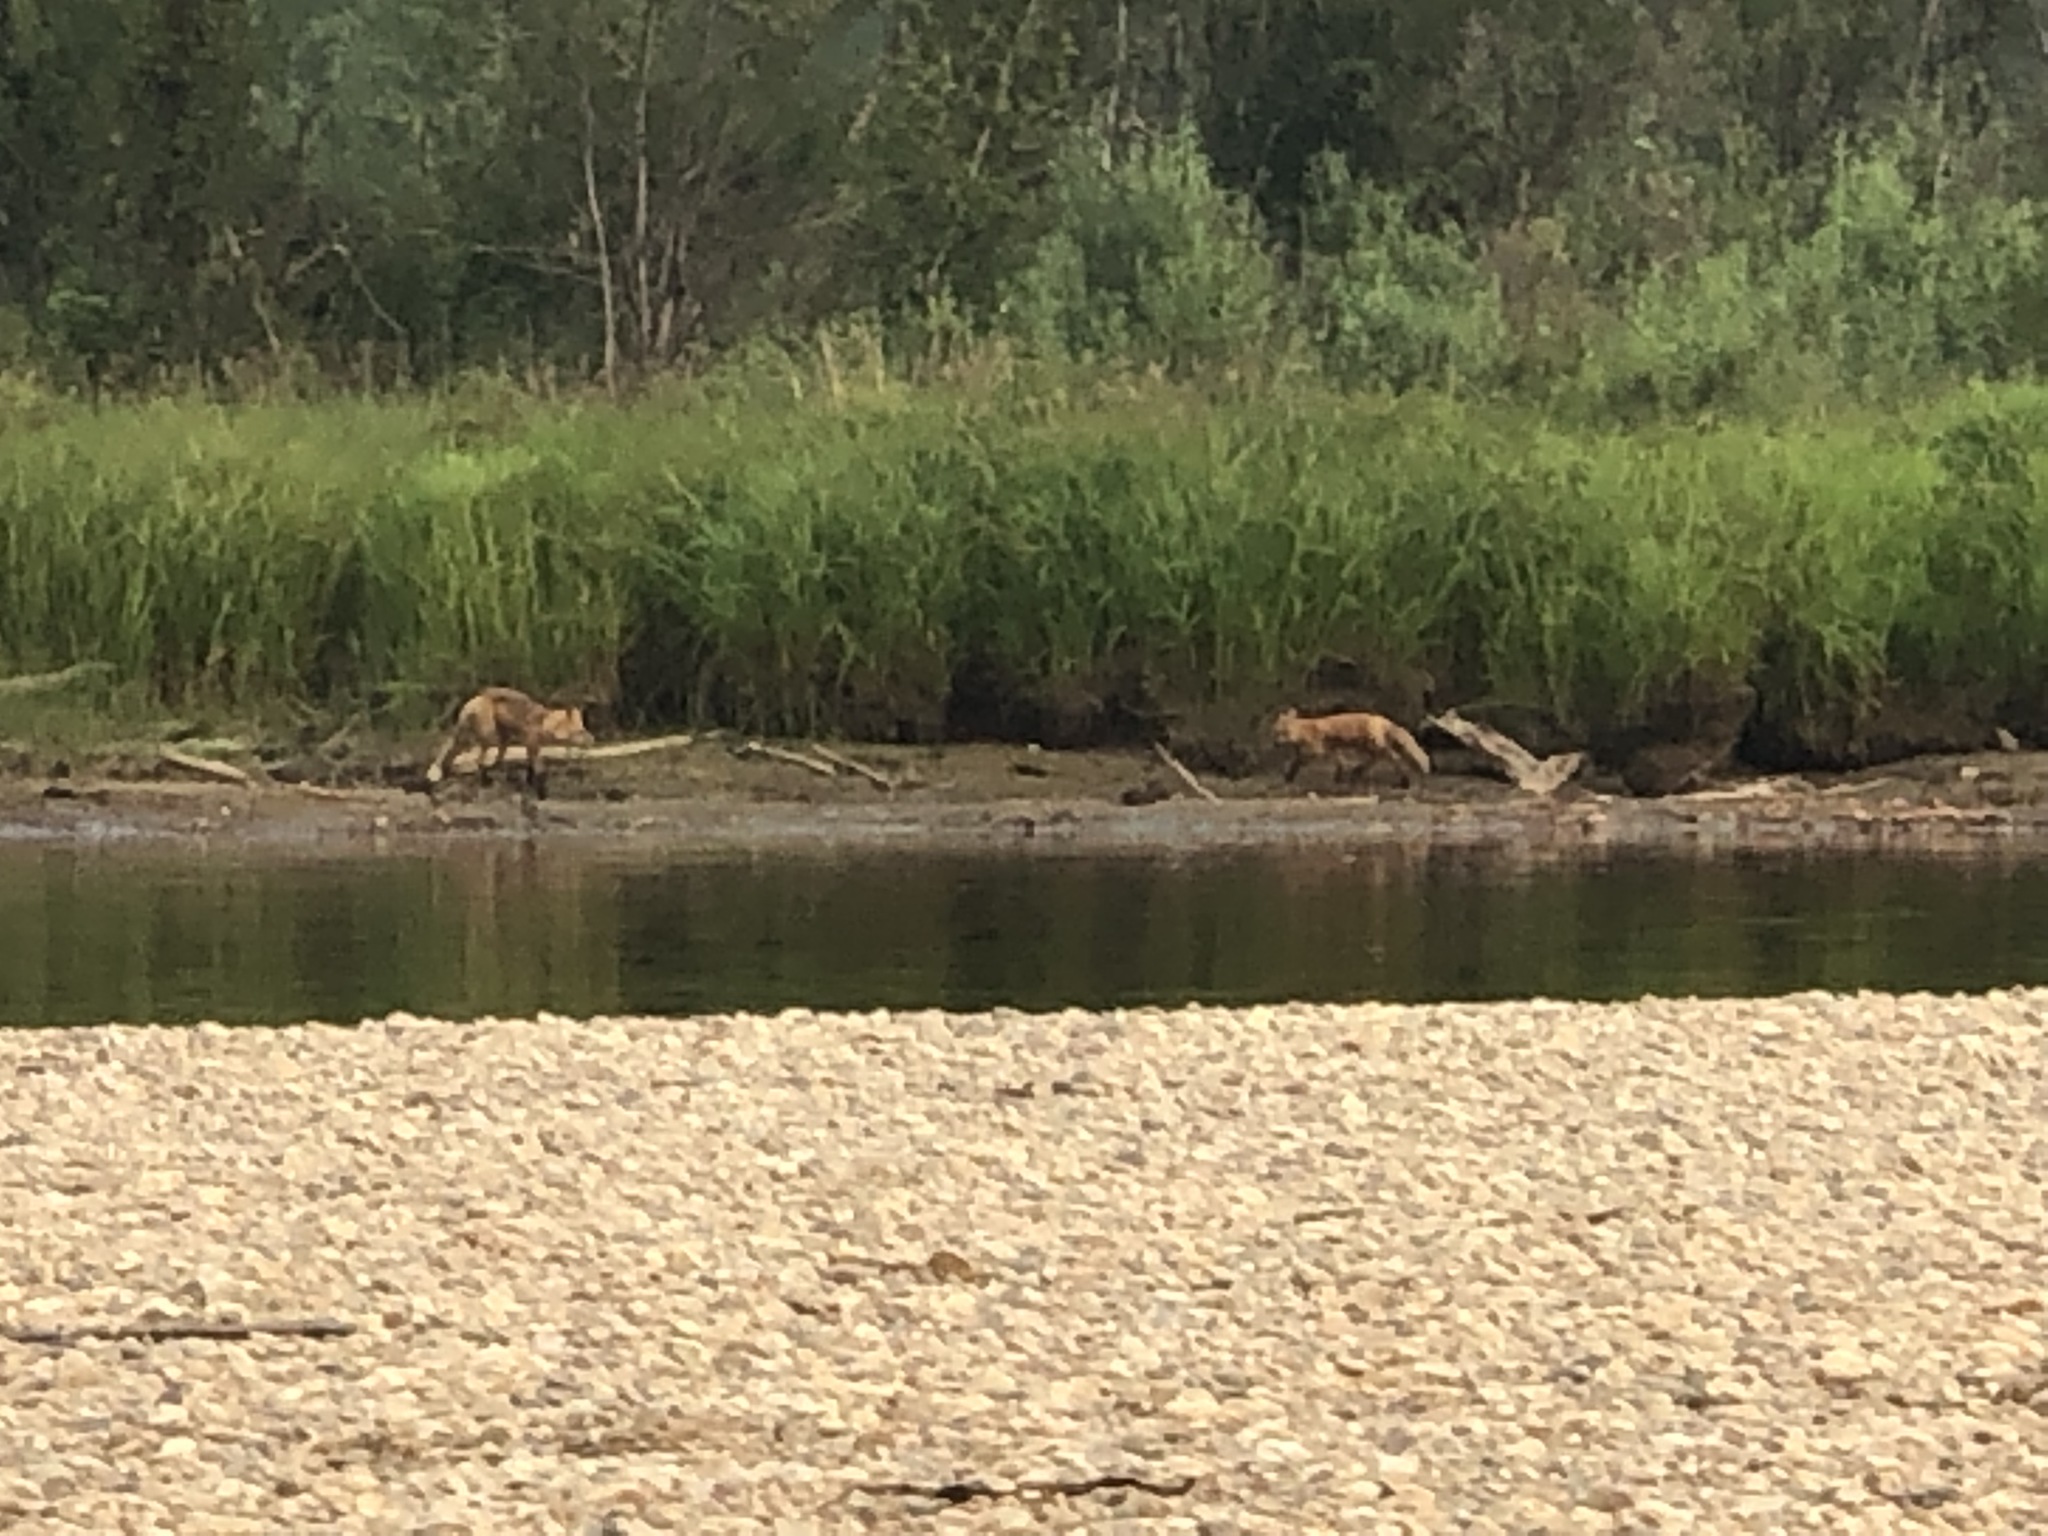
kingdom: Animalia
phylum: Chordata
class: Mammalia
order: Carnivora
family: Canidae
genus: Vulpes
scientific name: Vulpes vulpes
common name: Red fox
